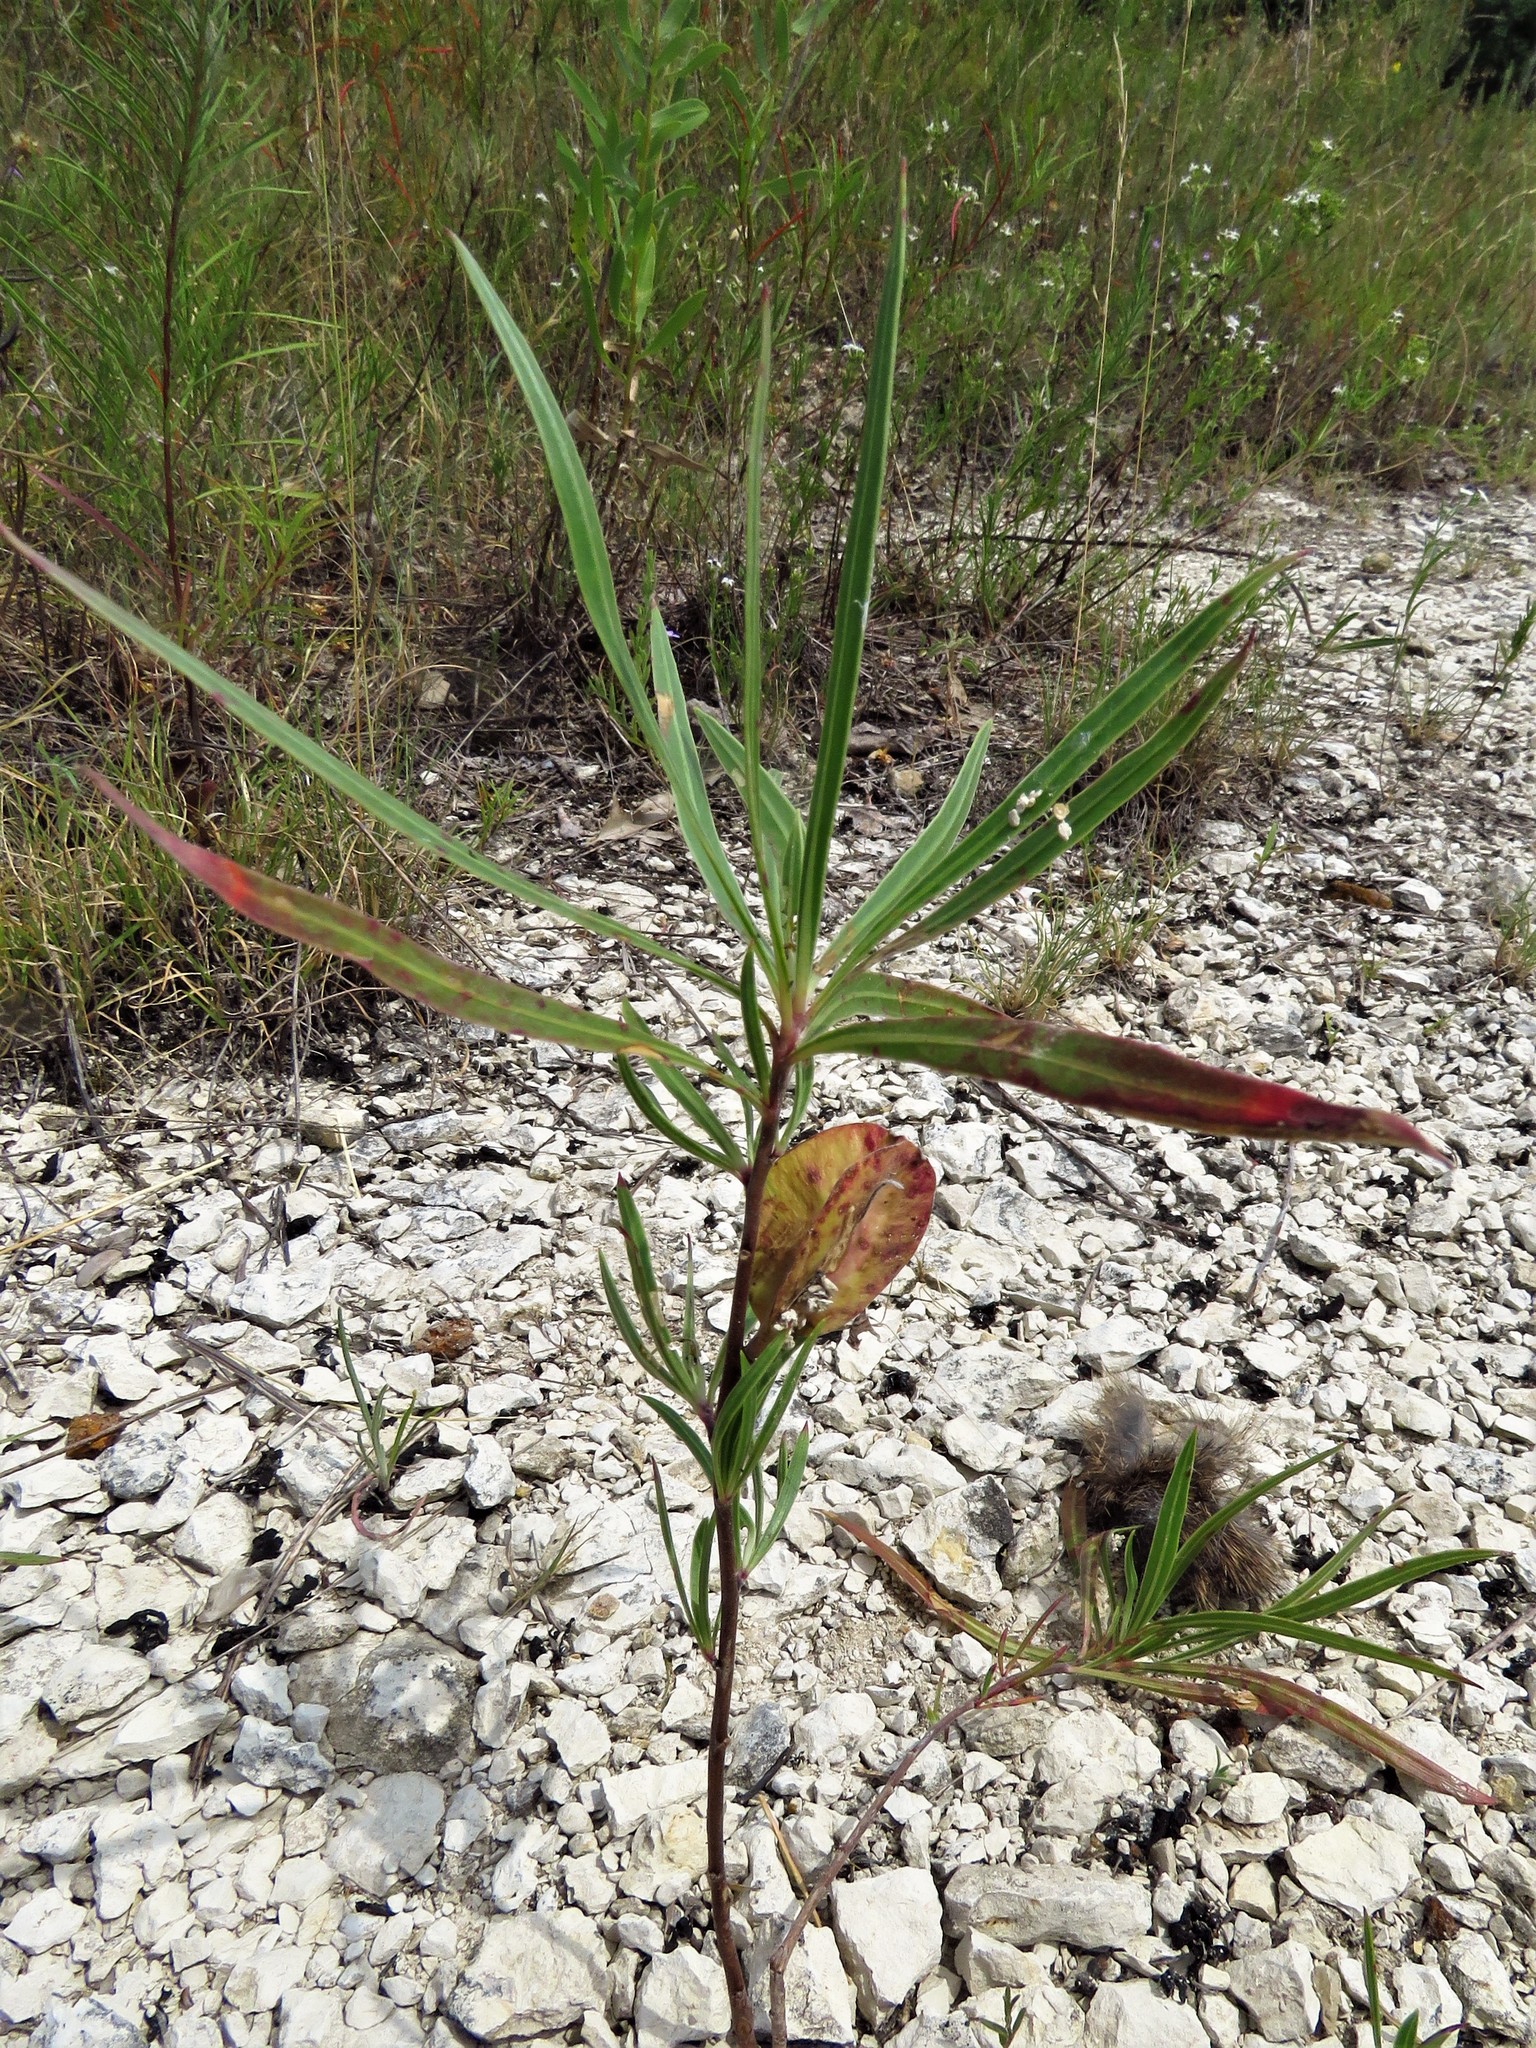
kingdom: Plantae
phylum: Tracheophyta
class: Magnoliopsida
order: Myrtales
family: Onagraceae
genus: Oenothera
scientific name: Oenothera macrocarpa
